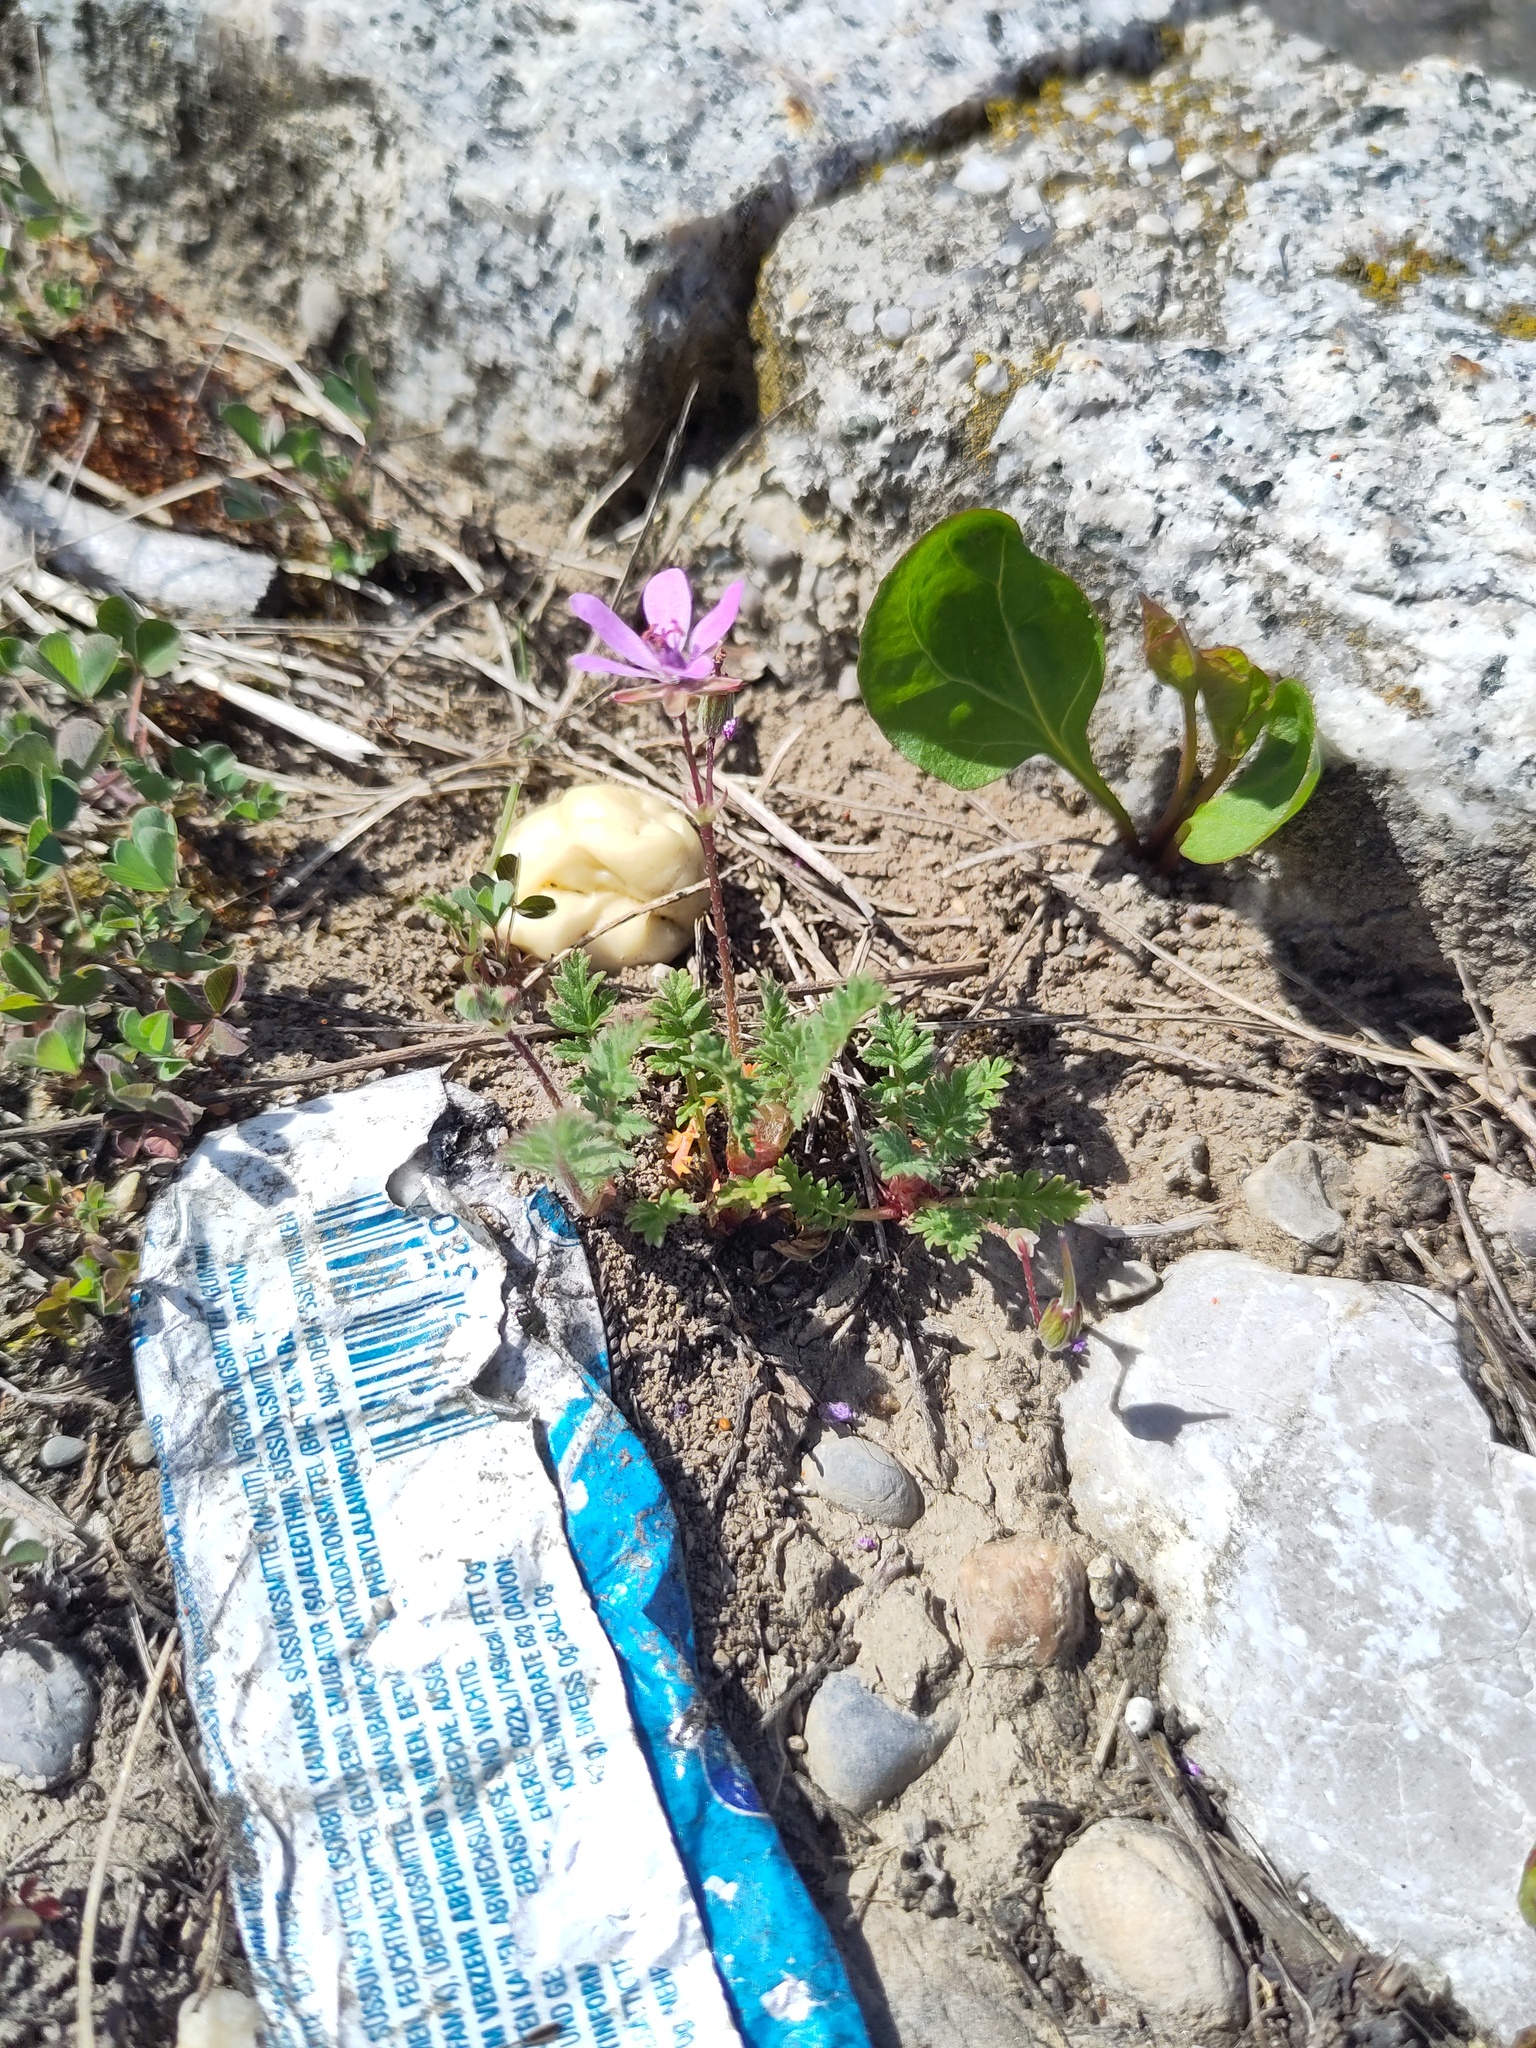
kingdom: Plantae
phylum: Tracheophyta
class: Magnoliopsida
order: Geraniales
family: Geraniaceae
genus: Erodium
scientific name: Erodium cicutarium
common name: Common stork's-bill
